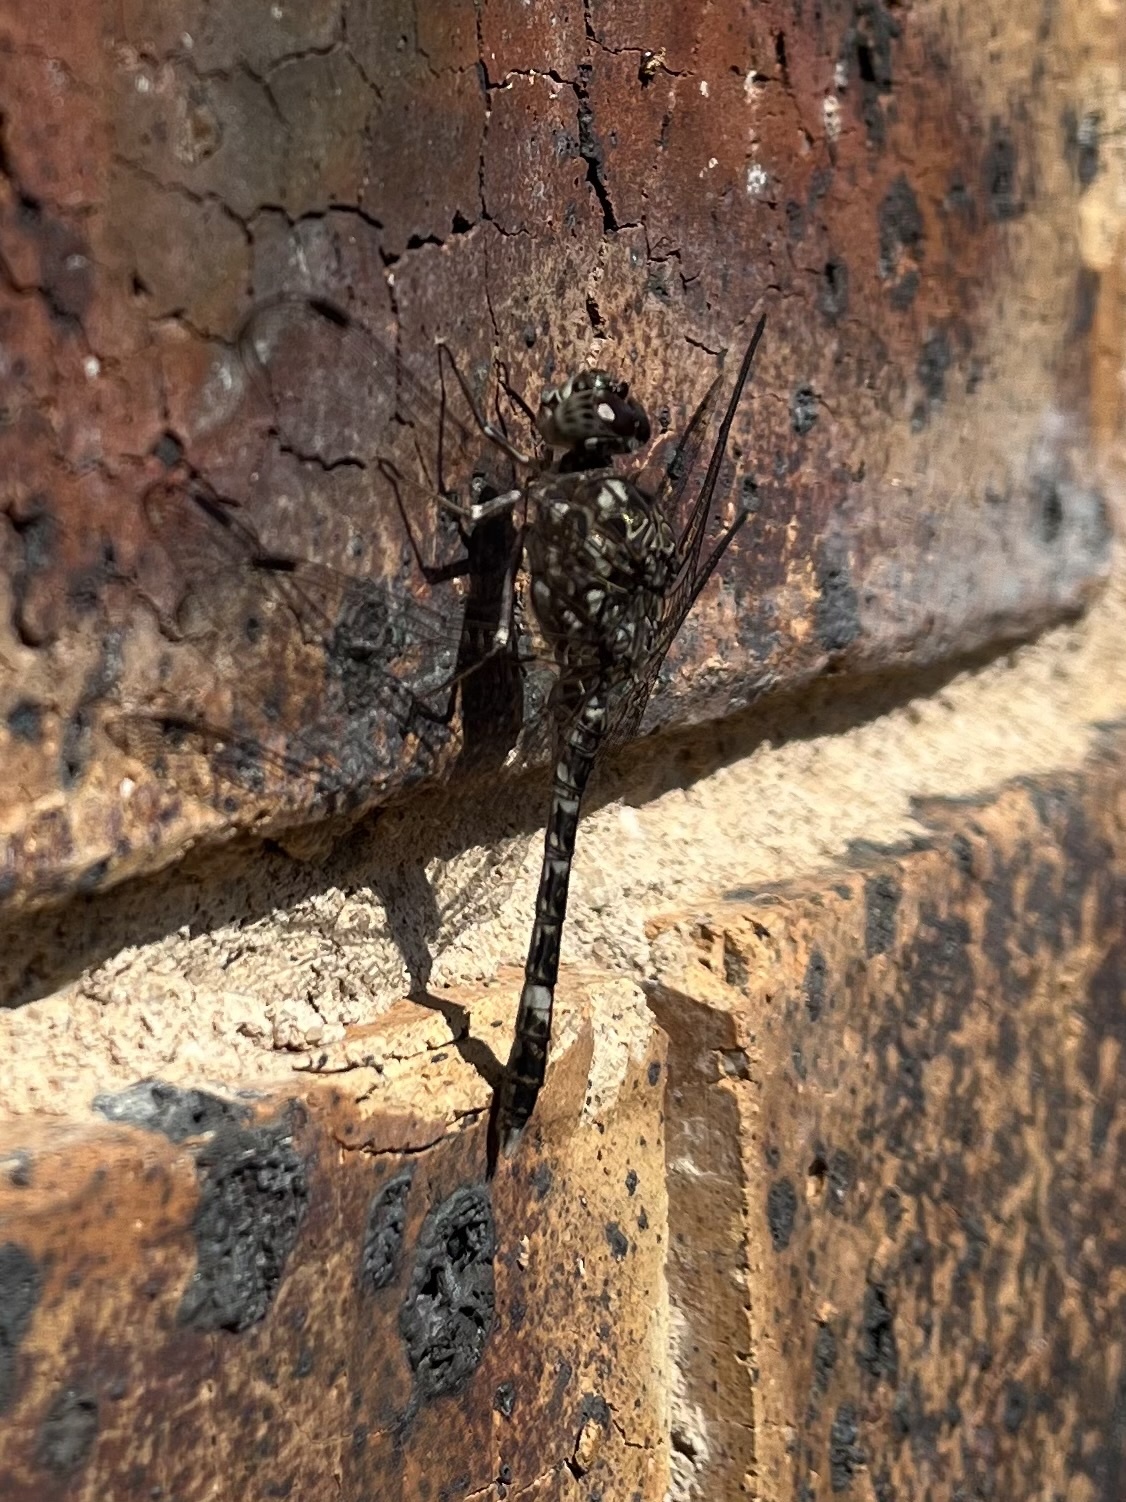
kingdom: Animalia
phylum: Arthropoda
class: Insecta
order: Odonata
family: Libellulidae
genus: Bradinopyga
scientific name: Bradinopyga cornuta
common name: Flecked wall-skimmer
